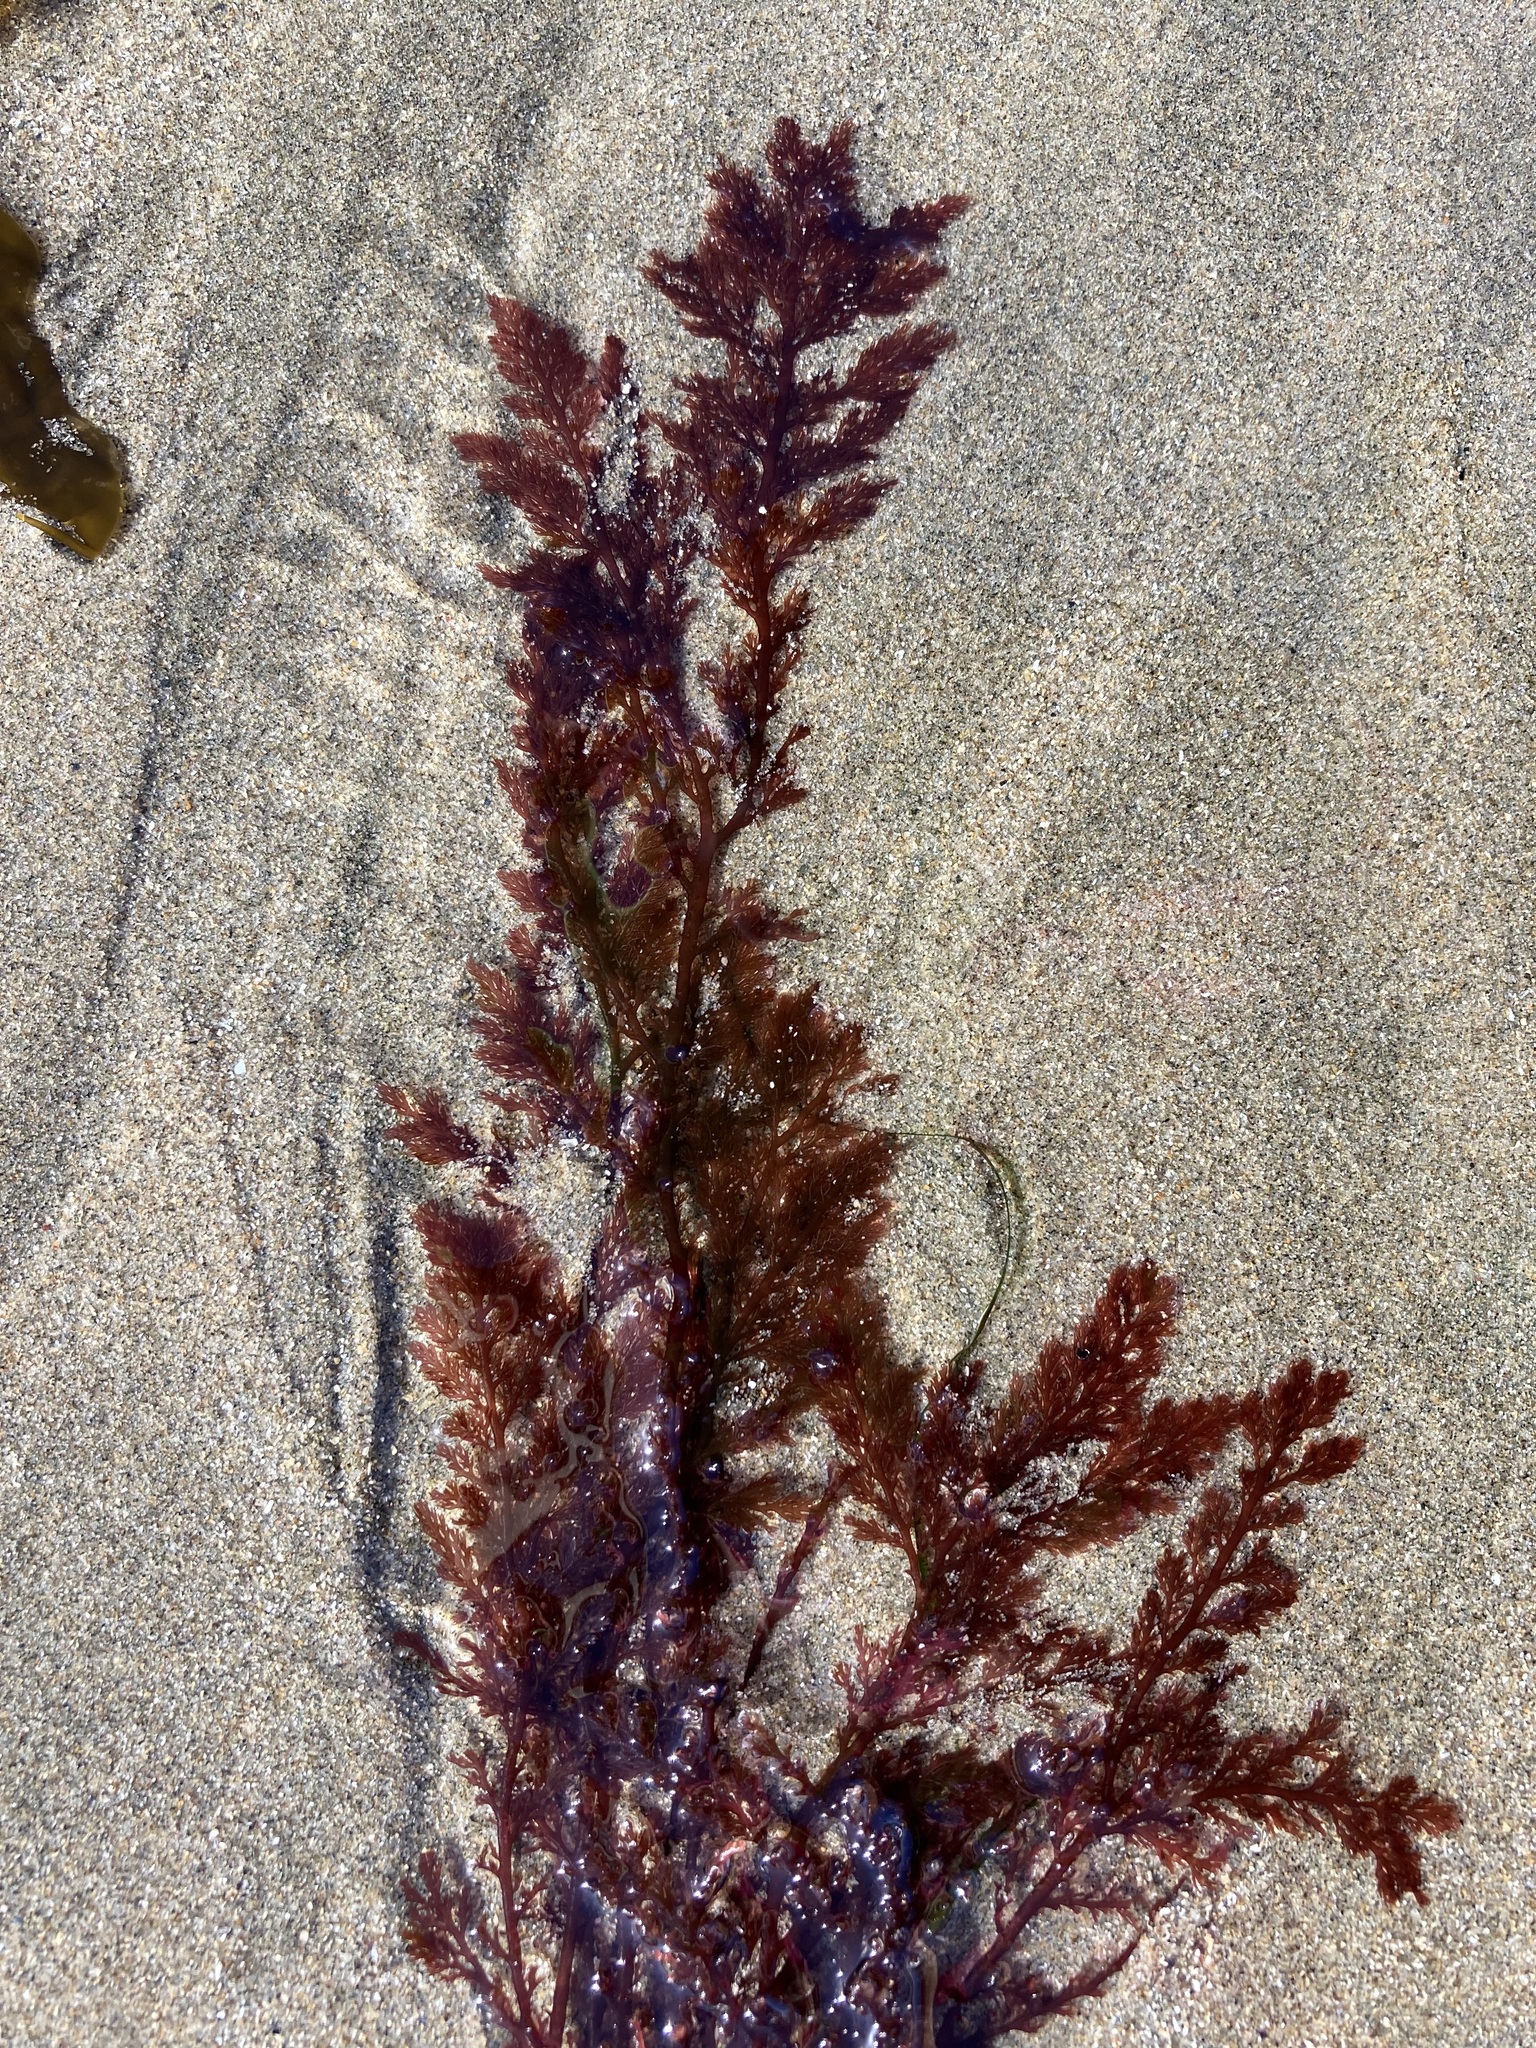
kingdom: Plantae
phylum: Rhodophyta
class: Florideophyceae
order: Ceramiales
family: Ceramiaceae
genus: Microcladia
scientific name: Microcladia coulteri
